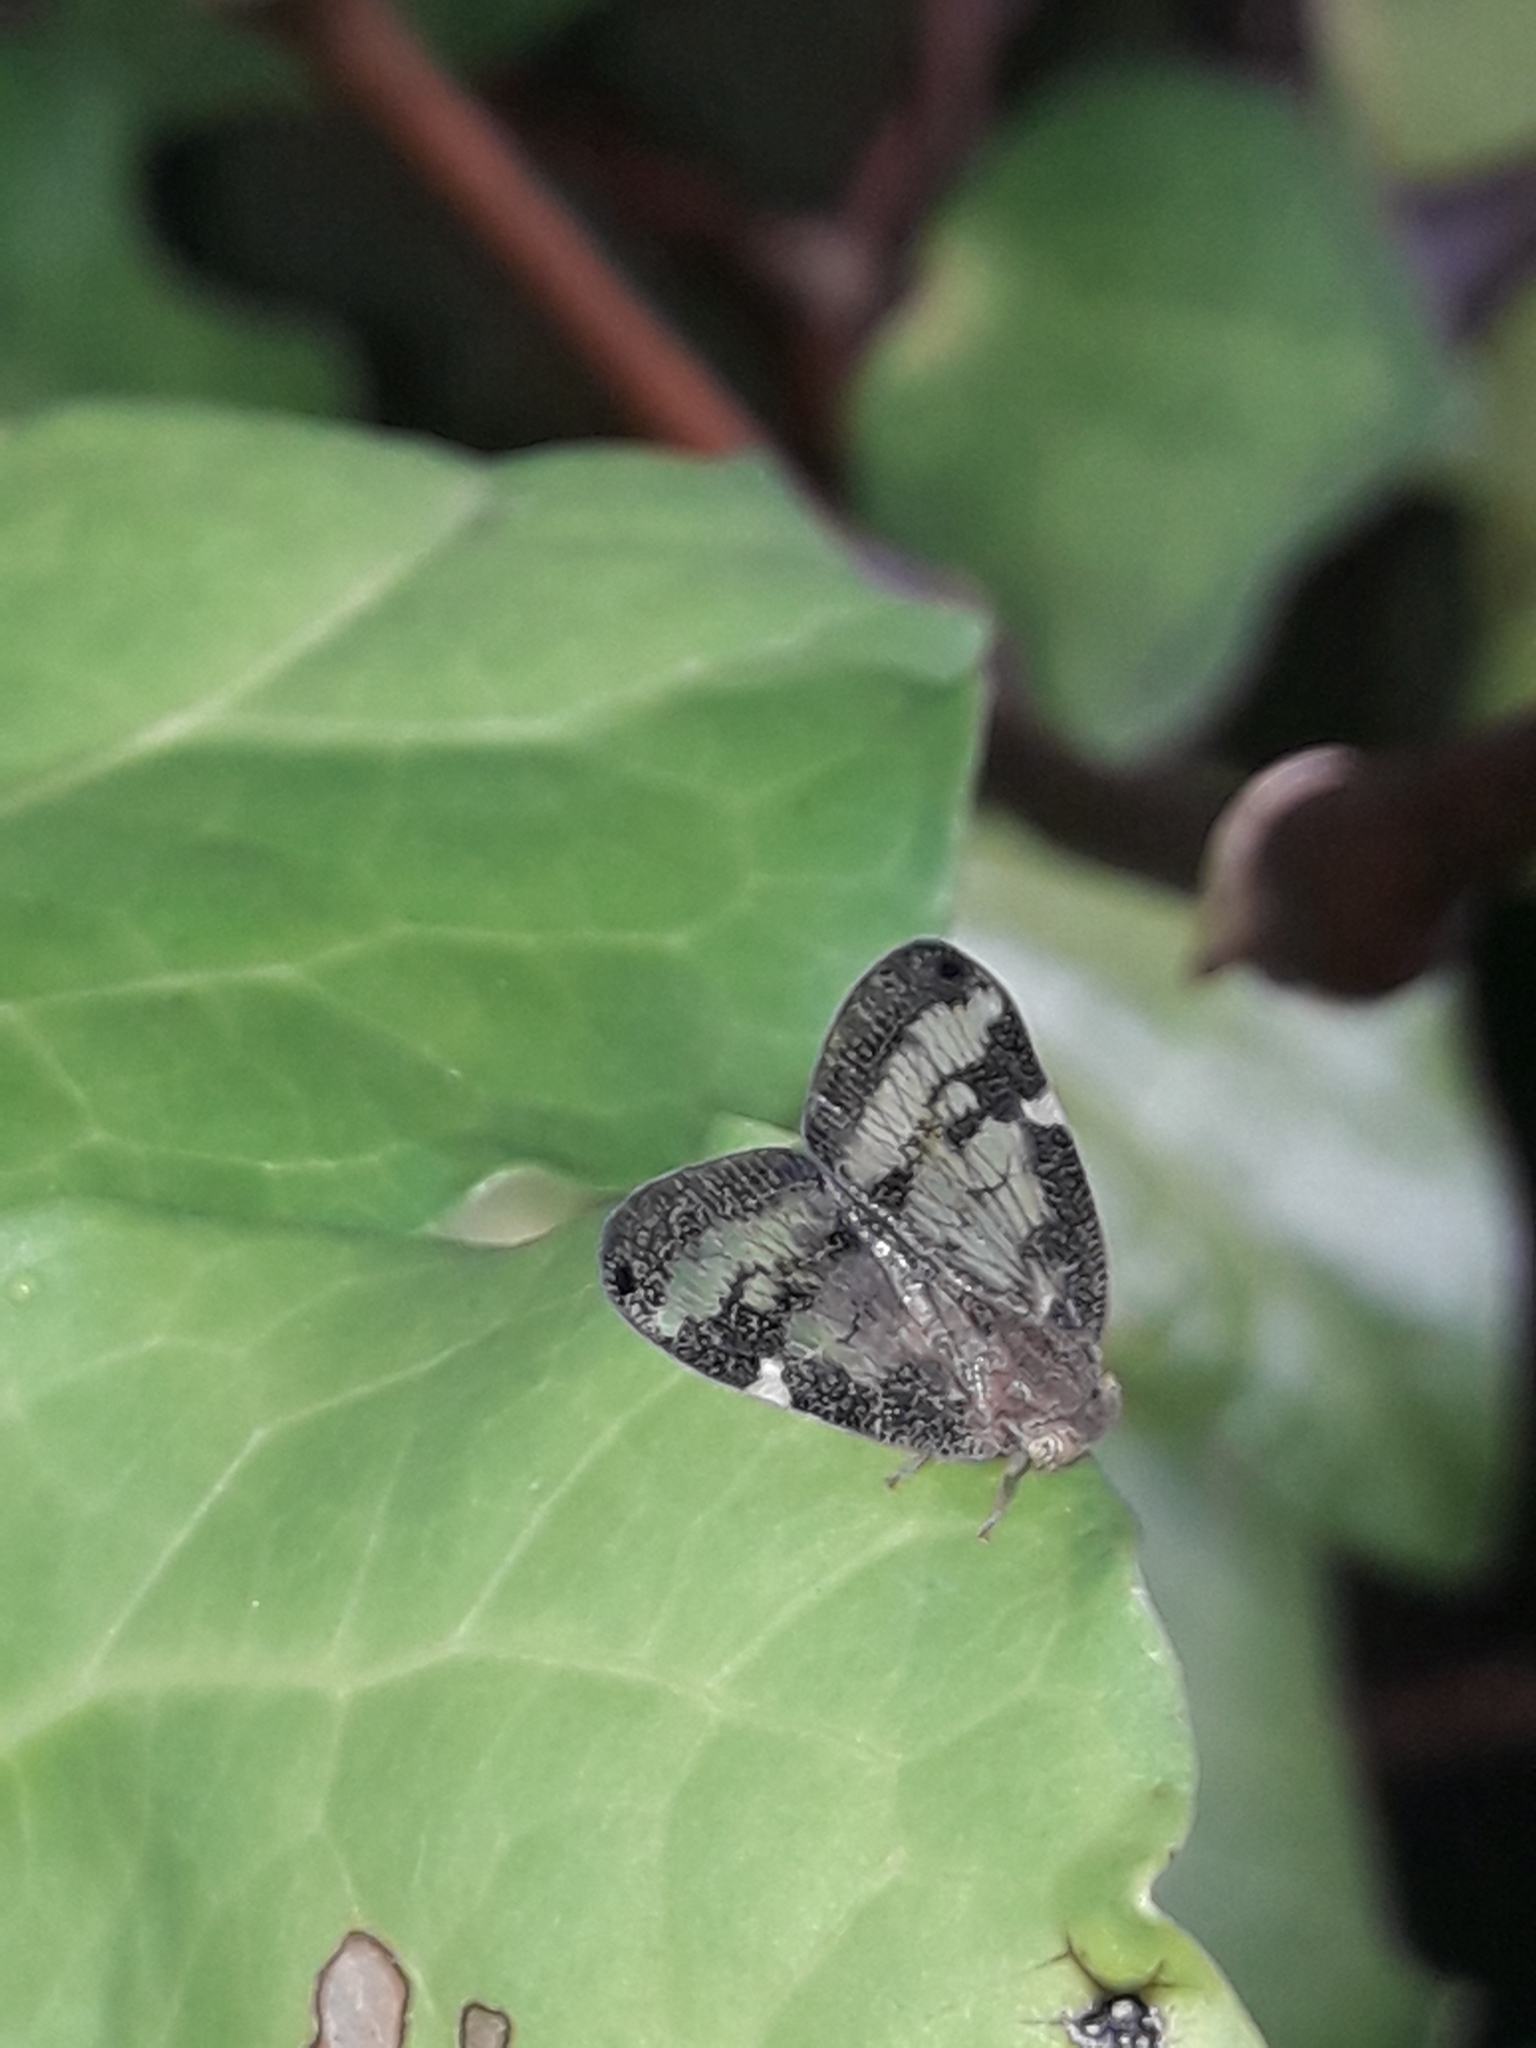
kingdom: Animalia
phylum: Arthropoda
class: Insecta
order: Hemiptera
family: Ricaniidae
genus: Scolypopa
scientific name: Scolypopa australis
